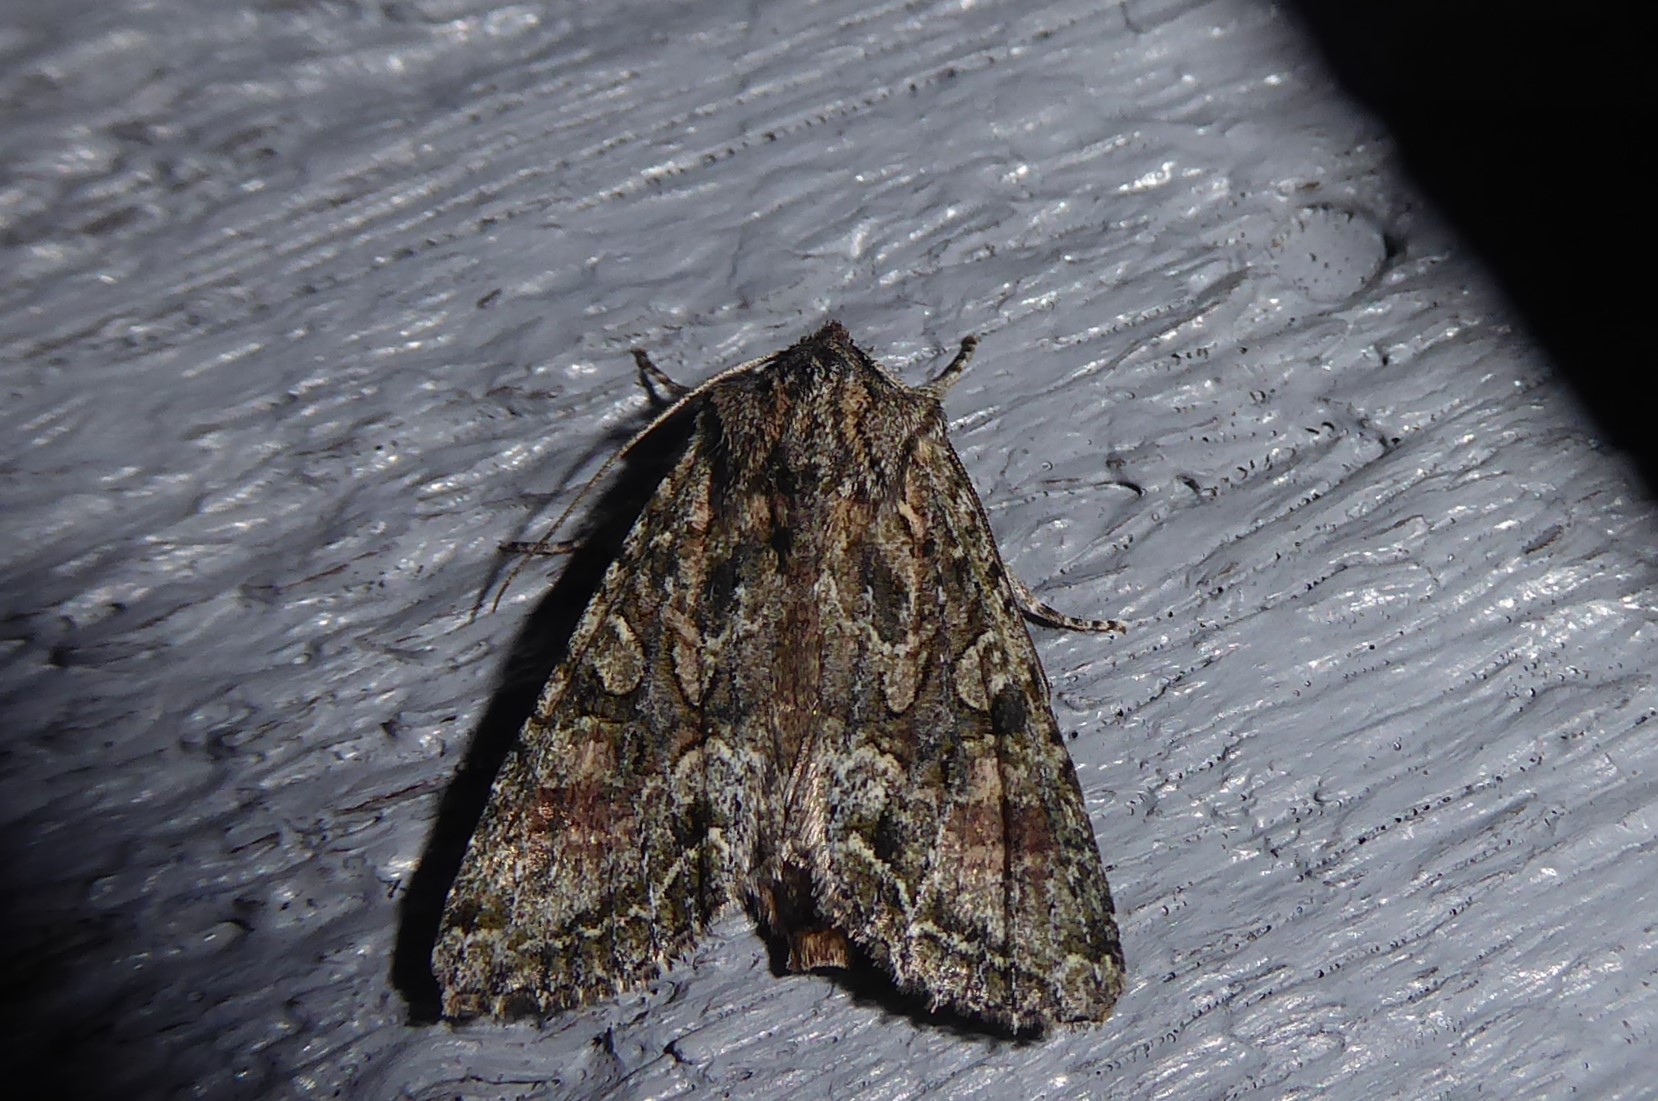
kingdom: Animalia
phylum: Arthropoda
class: Insecta
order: Lepidoptera
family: Noctuidae
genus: Ichneutica
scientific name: Ichneutica mutans
